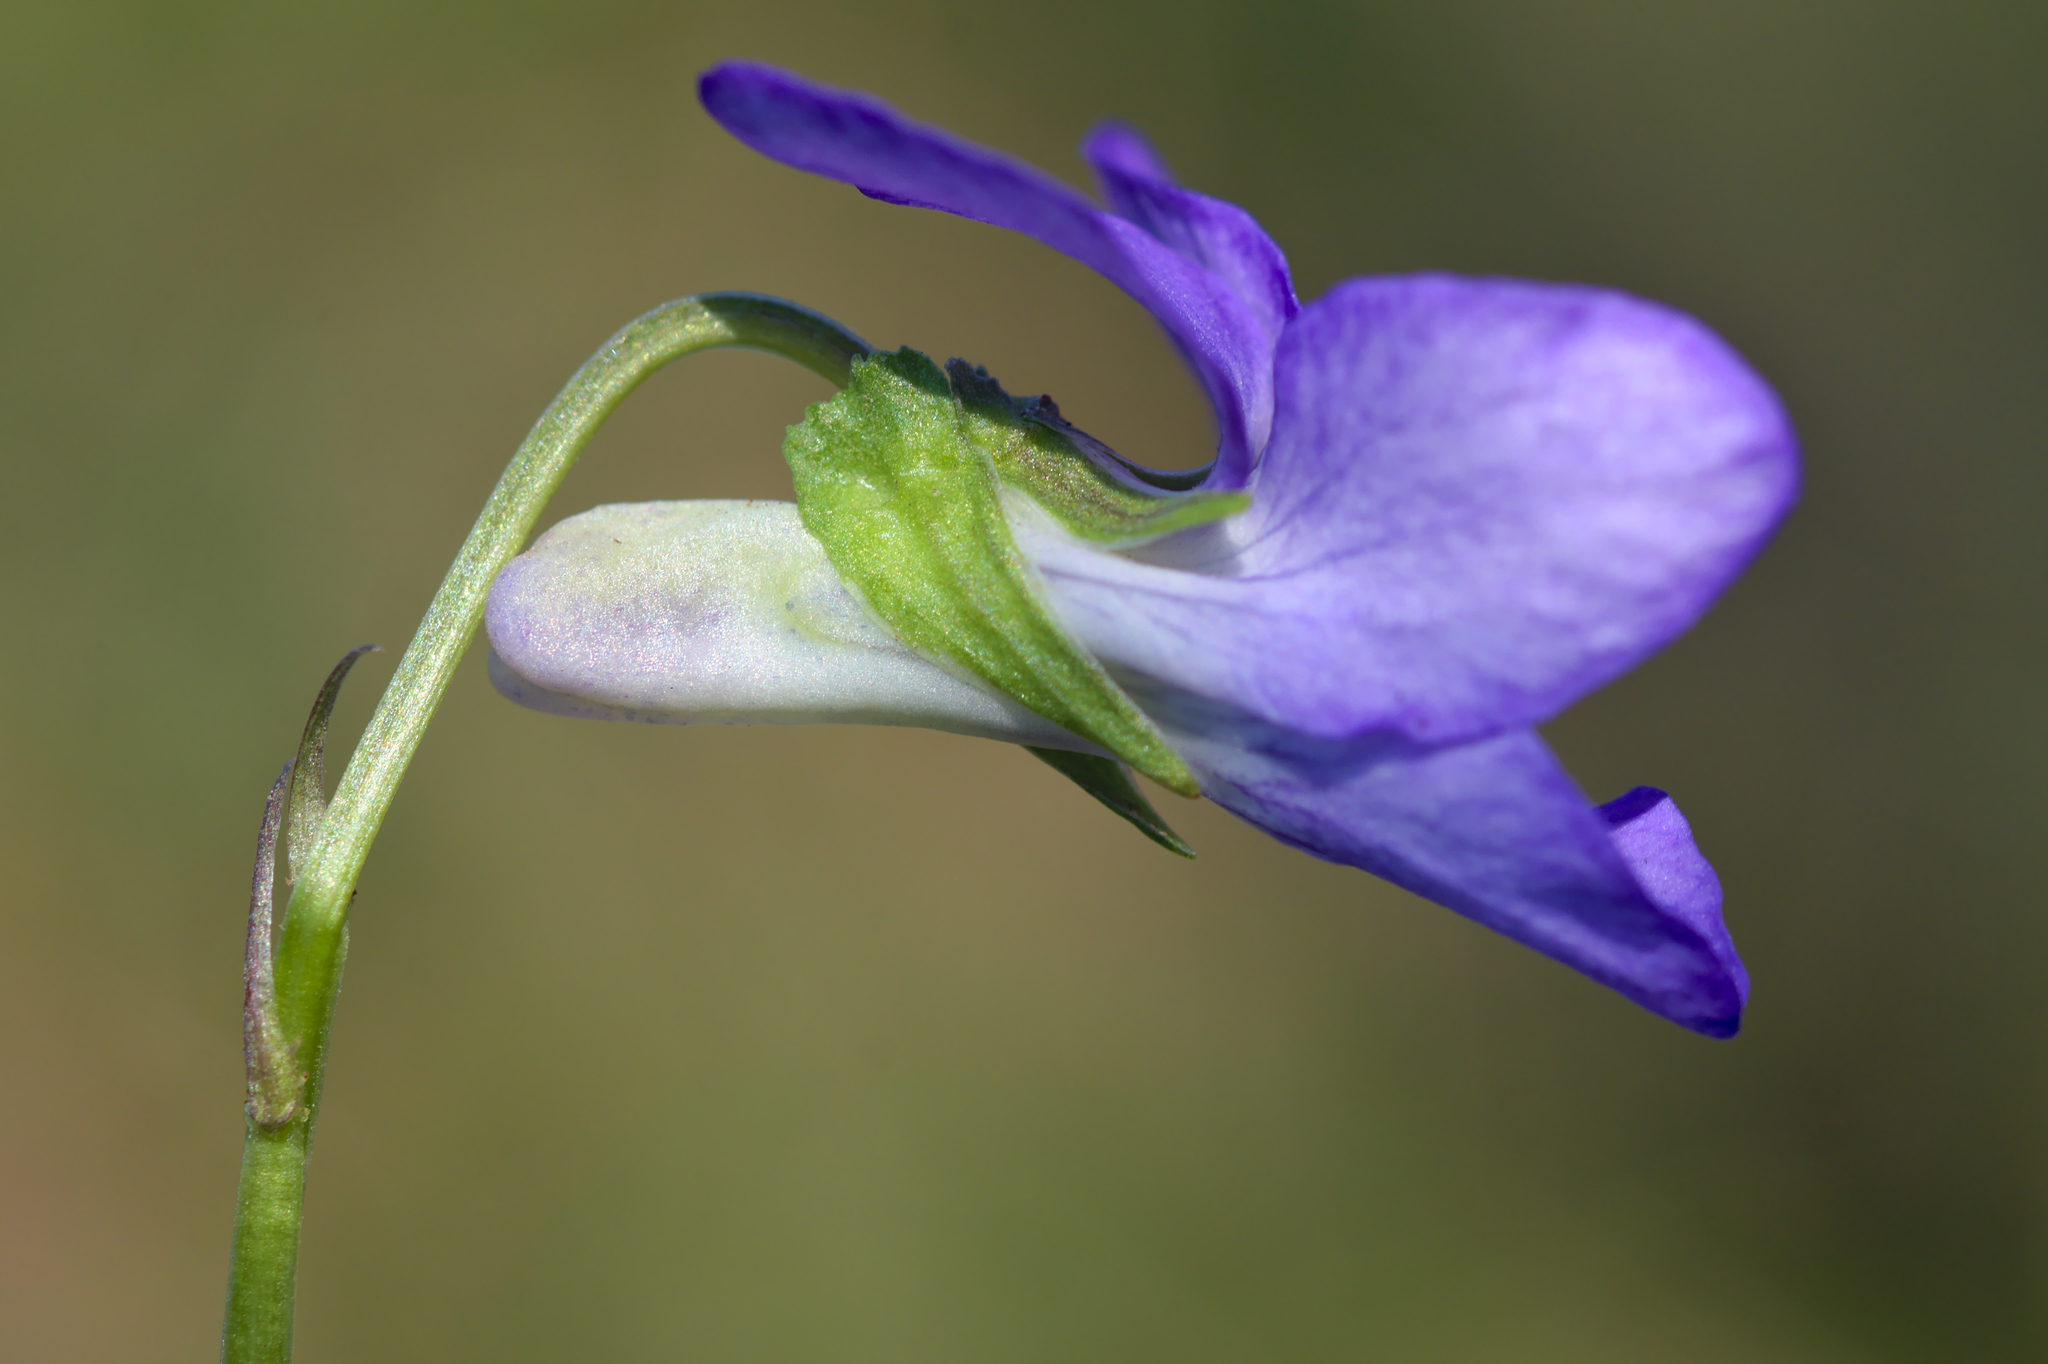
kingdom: Plantae
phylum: Tracheophyta
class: Magnoliopsida
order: Malpighiales
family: Violaceae
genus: Viola
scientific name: Viola riviniana
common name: Common dog-violet
